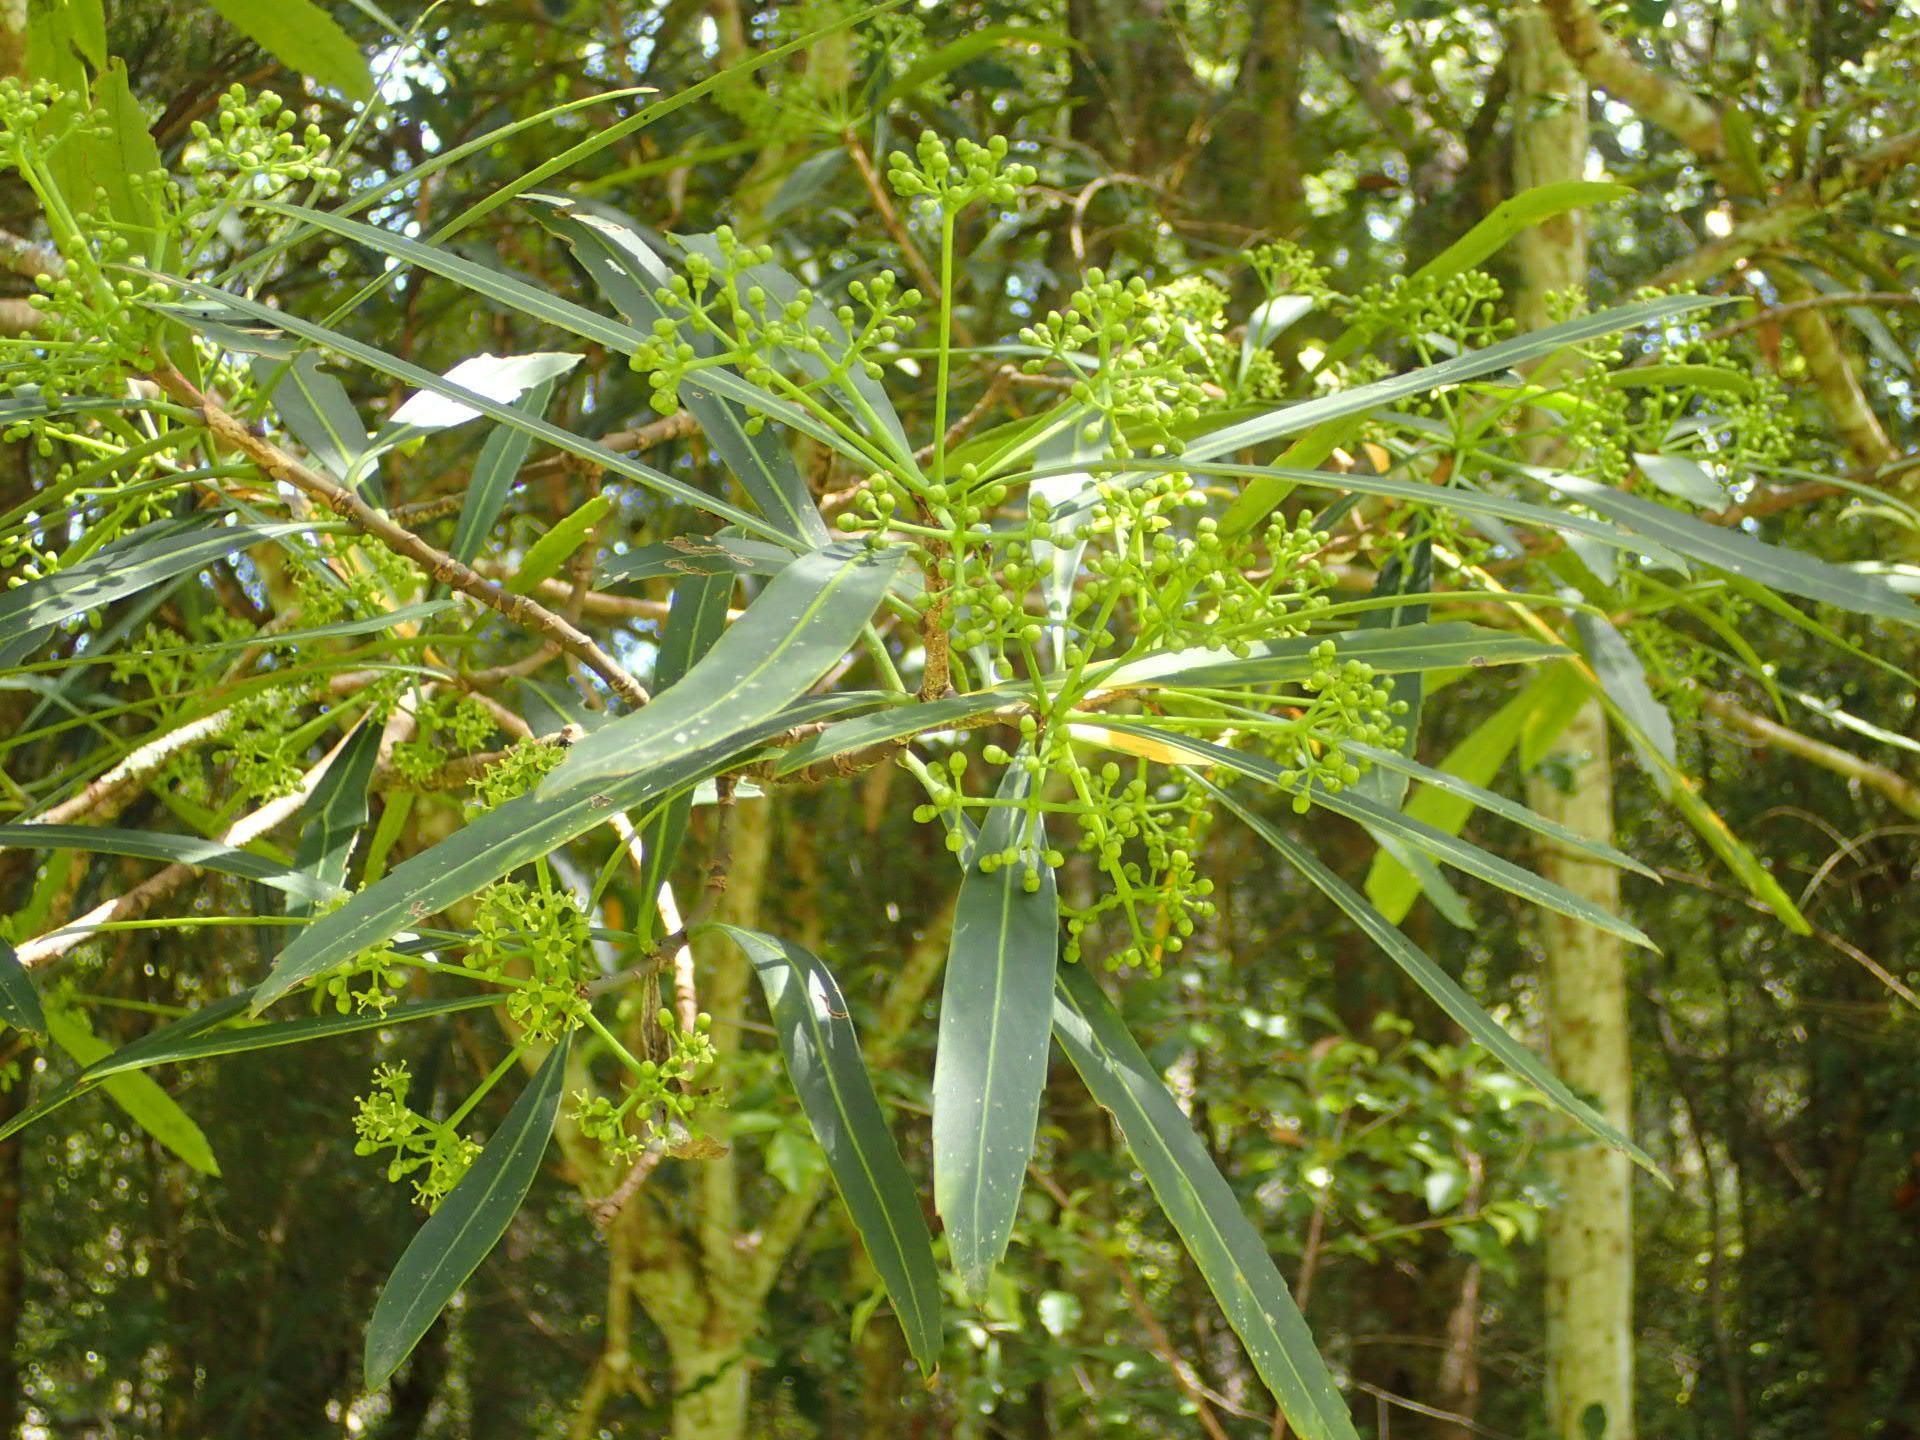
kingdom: Plantae
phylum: Tracheophyta
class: Magnoliopsida
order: Apiales
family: Araliaceae
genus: Pseudopanax
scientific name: Pseudopanax crassifolius
